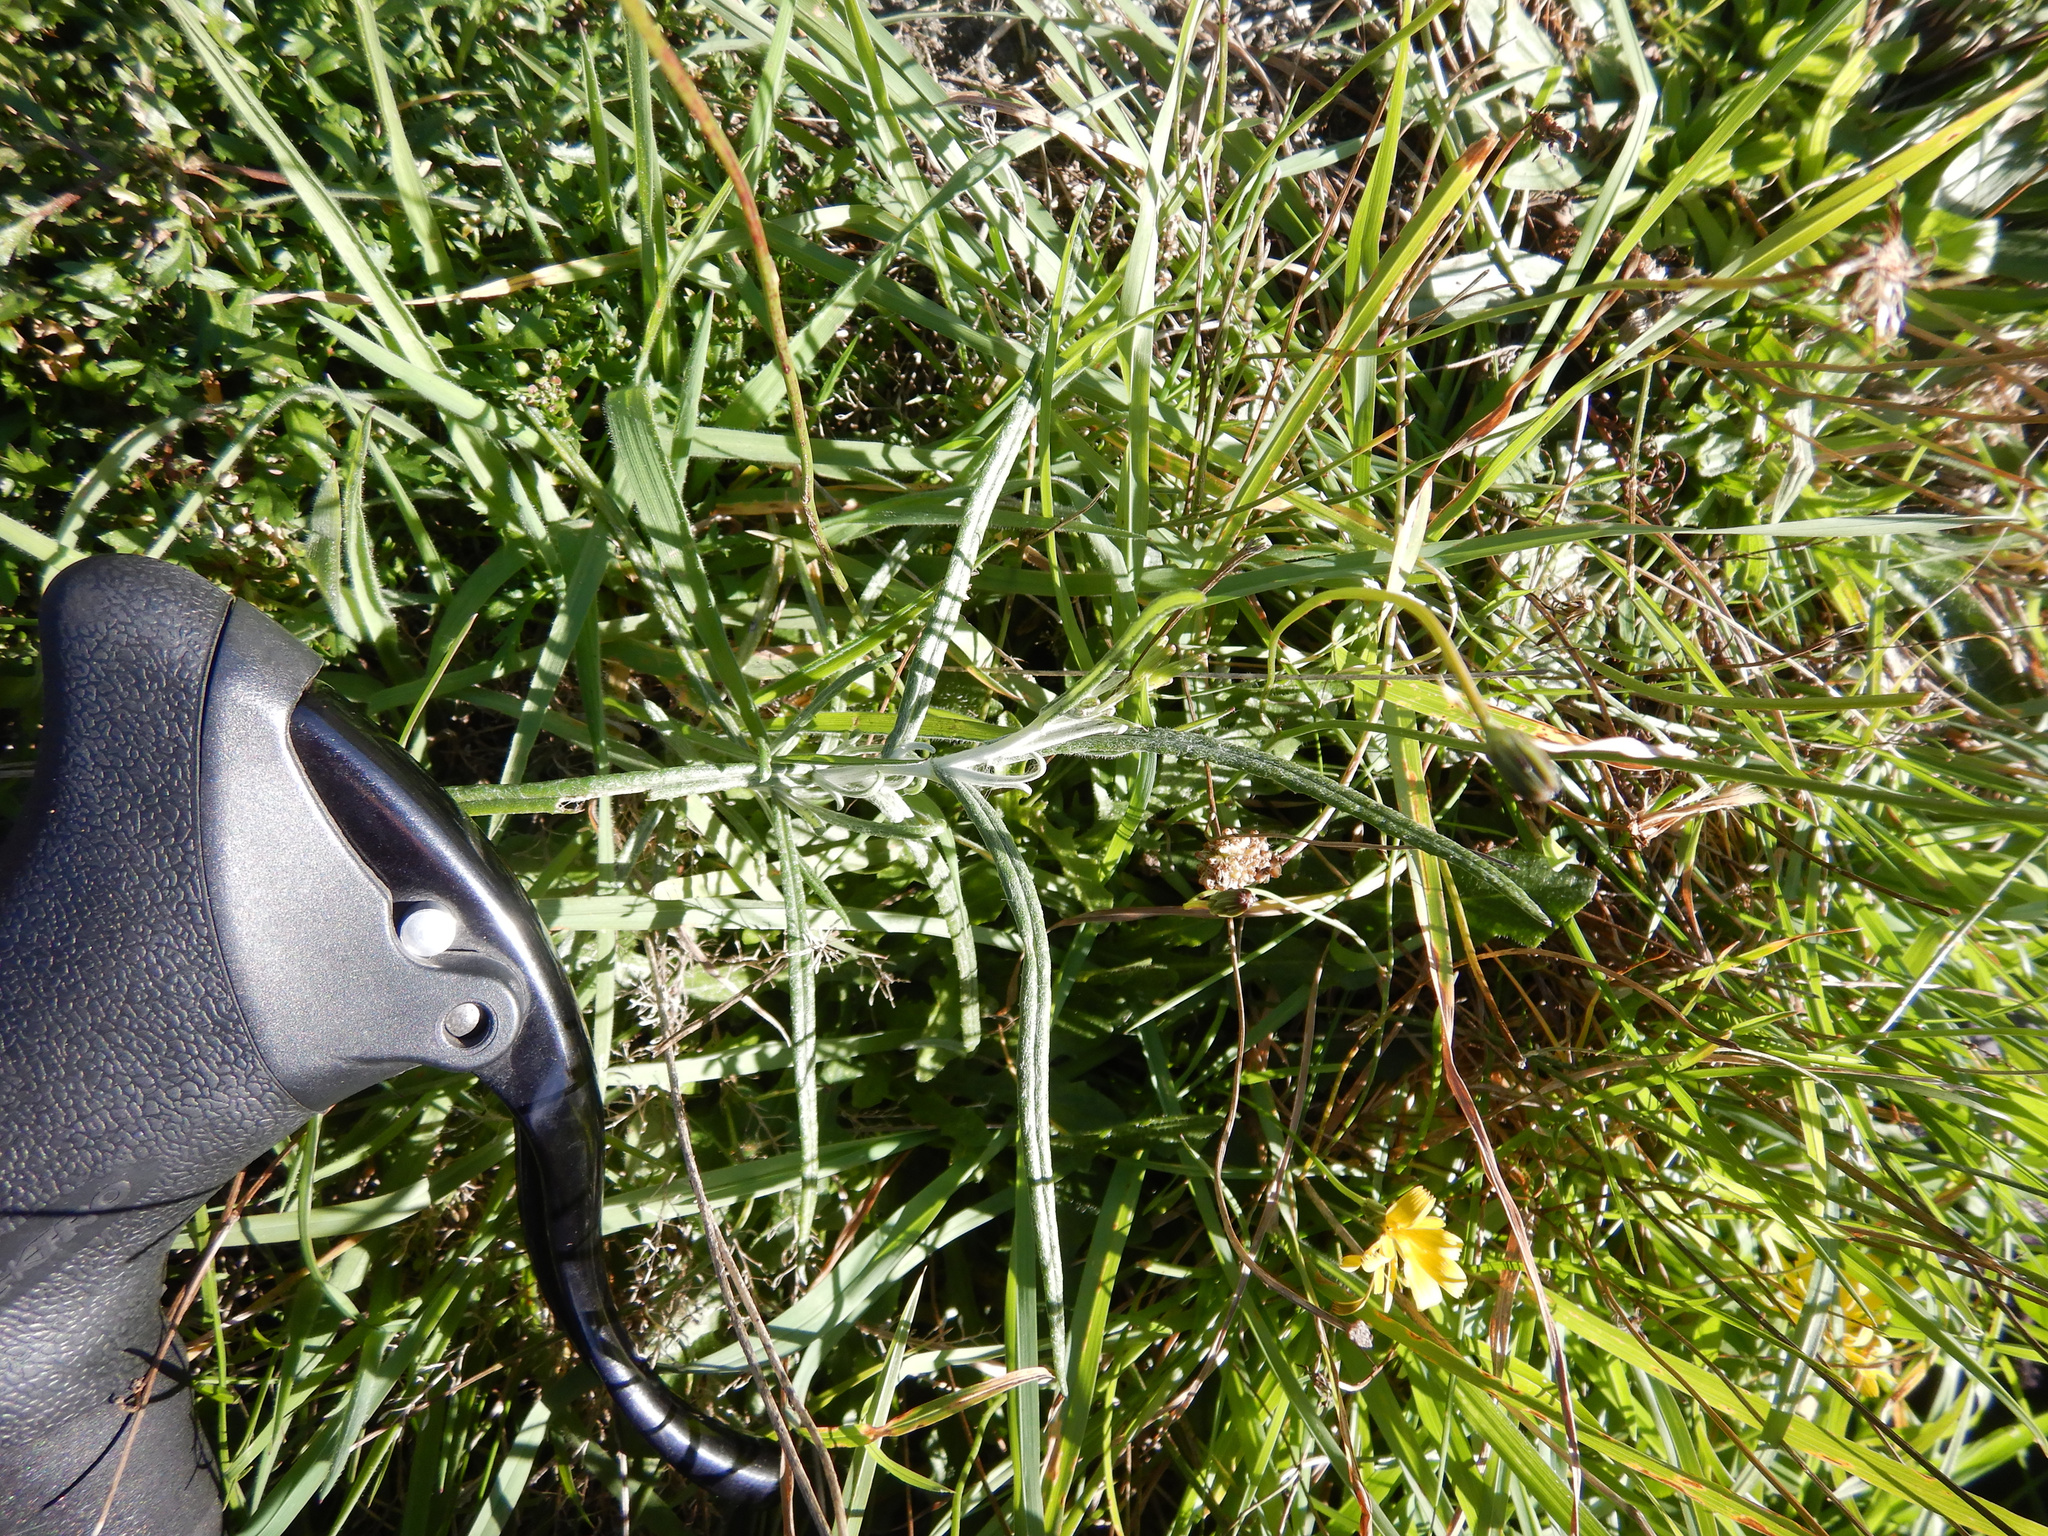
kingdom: Plantae
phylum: Tracheophyta
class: Magnoliopsida
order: Asterales
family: Asteraceae
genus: Senecio
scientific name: Senecio quadridentatus
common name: Cotton fireweed
